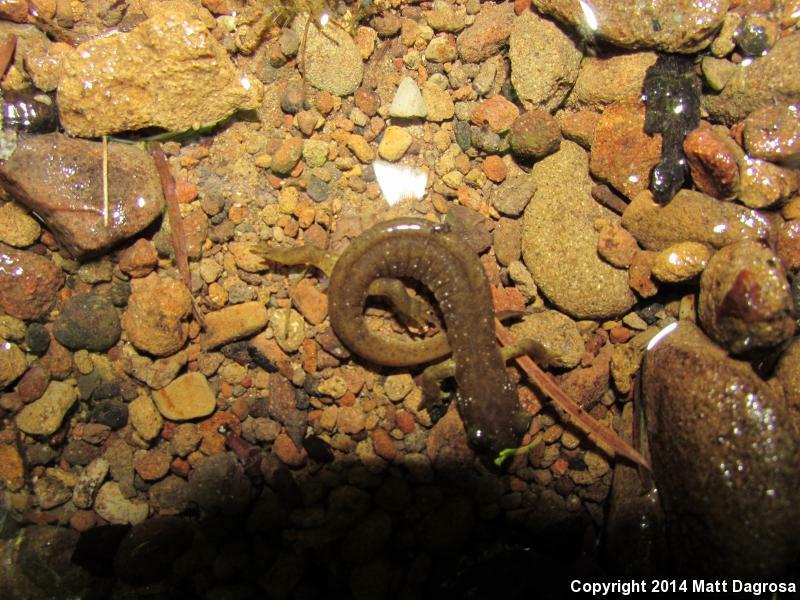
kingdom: Animalia
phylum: Chordata
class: Amphibia
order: Caudata
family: Rhyacotritonidae
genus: Rhyacotriton
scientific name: Rhyacotriton variegatus
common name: Southern torrent salamander
